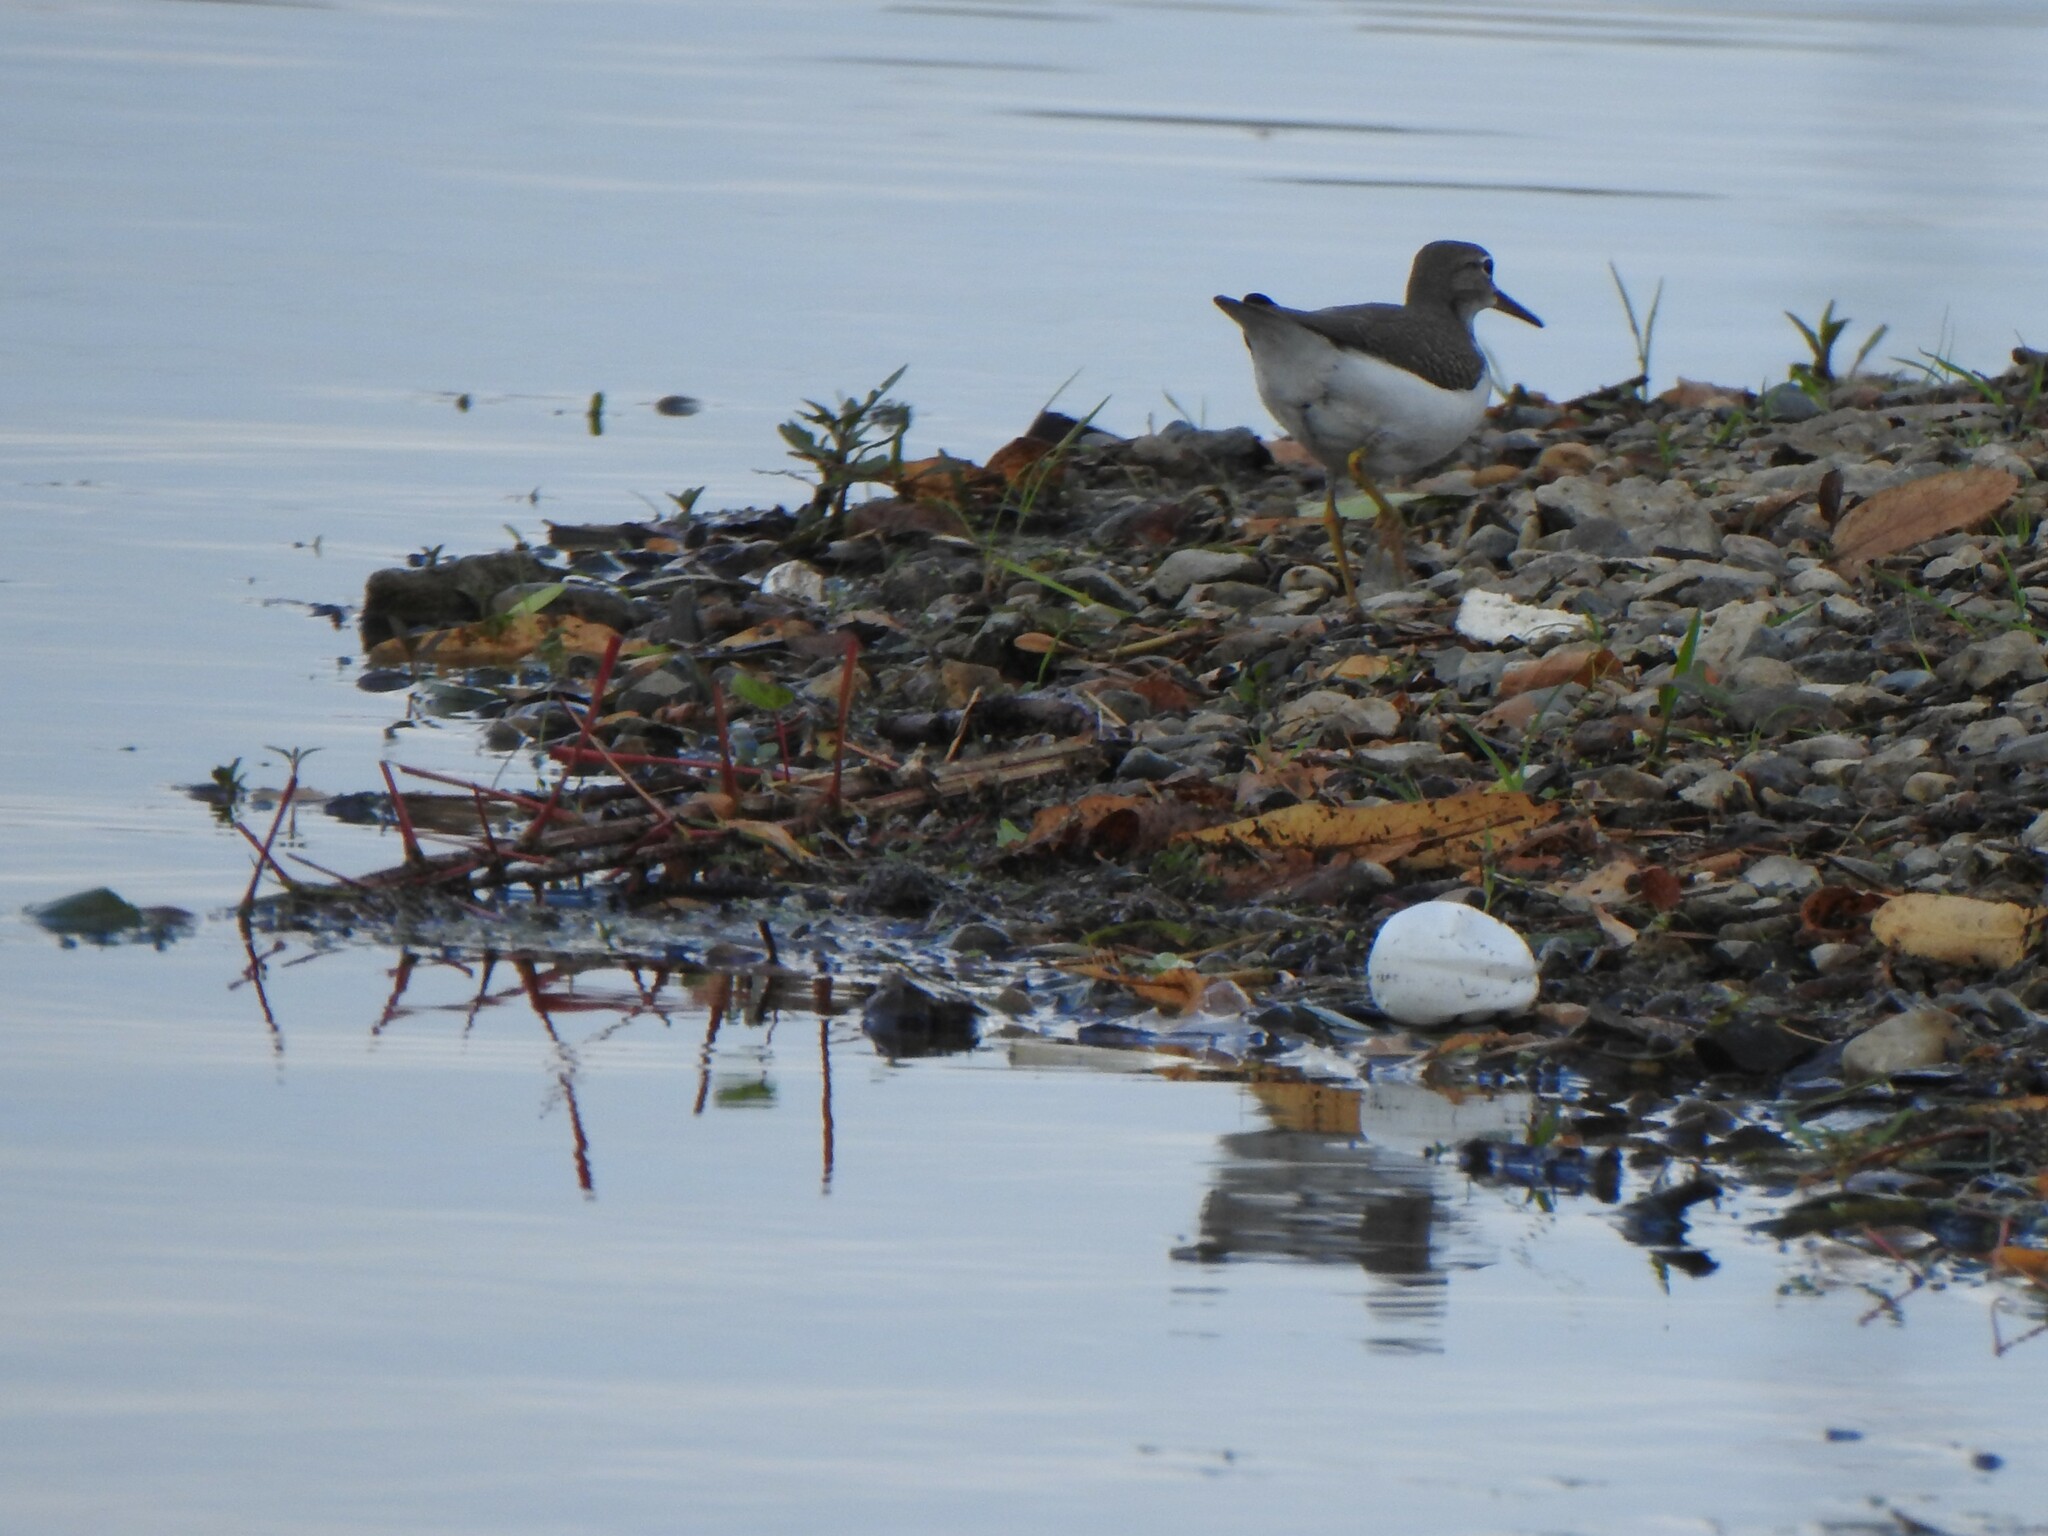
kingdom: Animalia
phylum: Chordata
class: Aves
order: Charadriiformes
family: Scolopacidae
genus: Actitis
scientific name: Actitis macularius
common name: Spotted sandpiper
